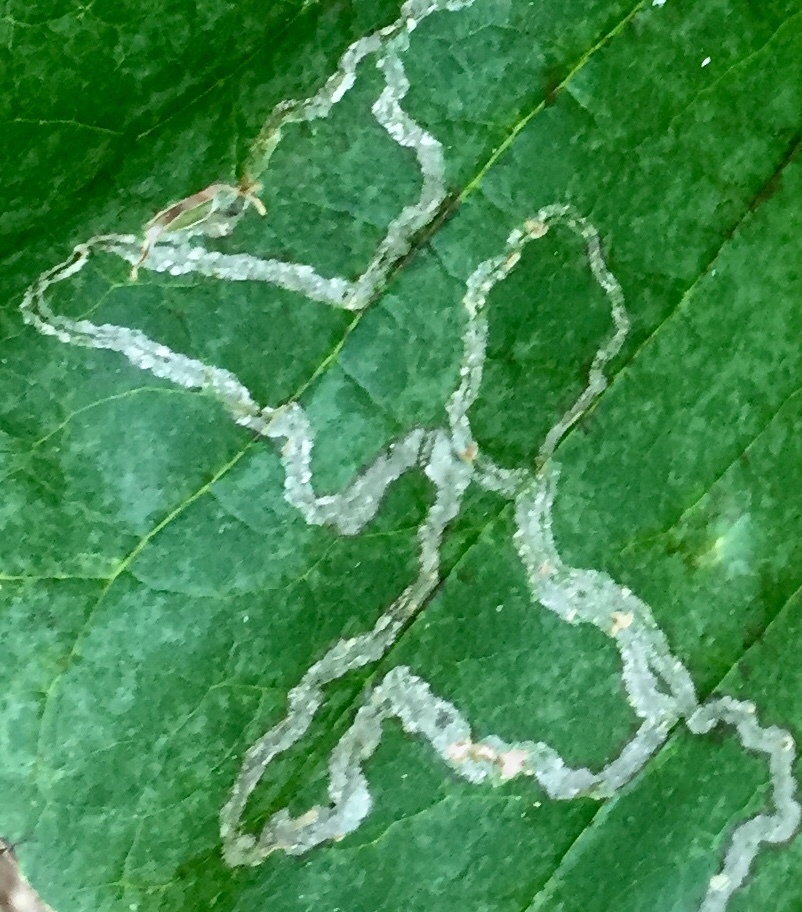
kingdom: Animalia
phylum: Arthropoda
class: Insecta
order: Lepidoptera
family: Gracillariidae
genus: Phyllocnistis
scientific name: Phyllocnistis liriodendronella
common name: Tulip tree leaf miner
